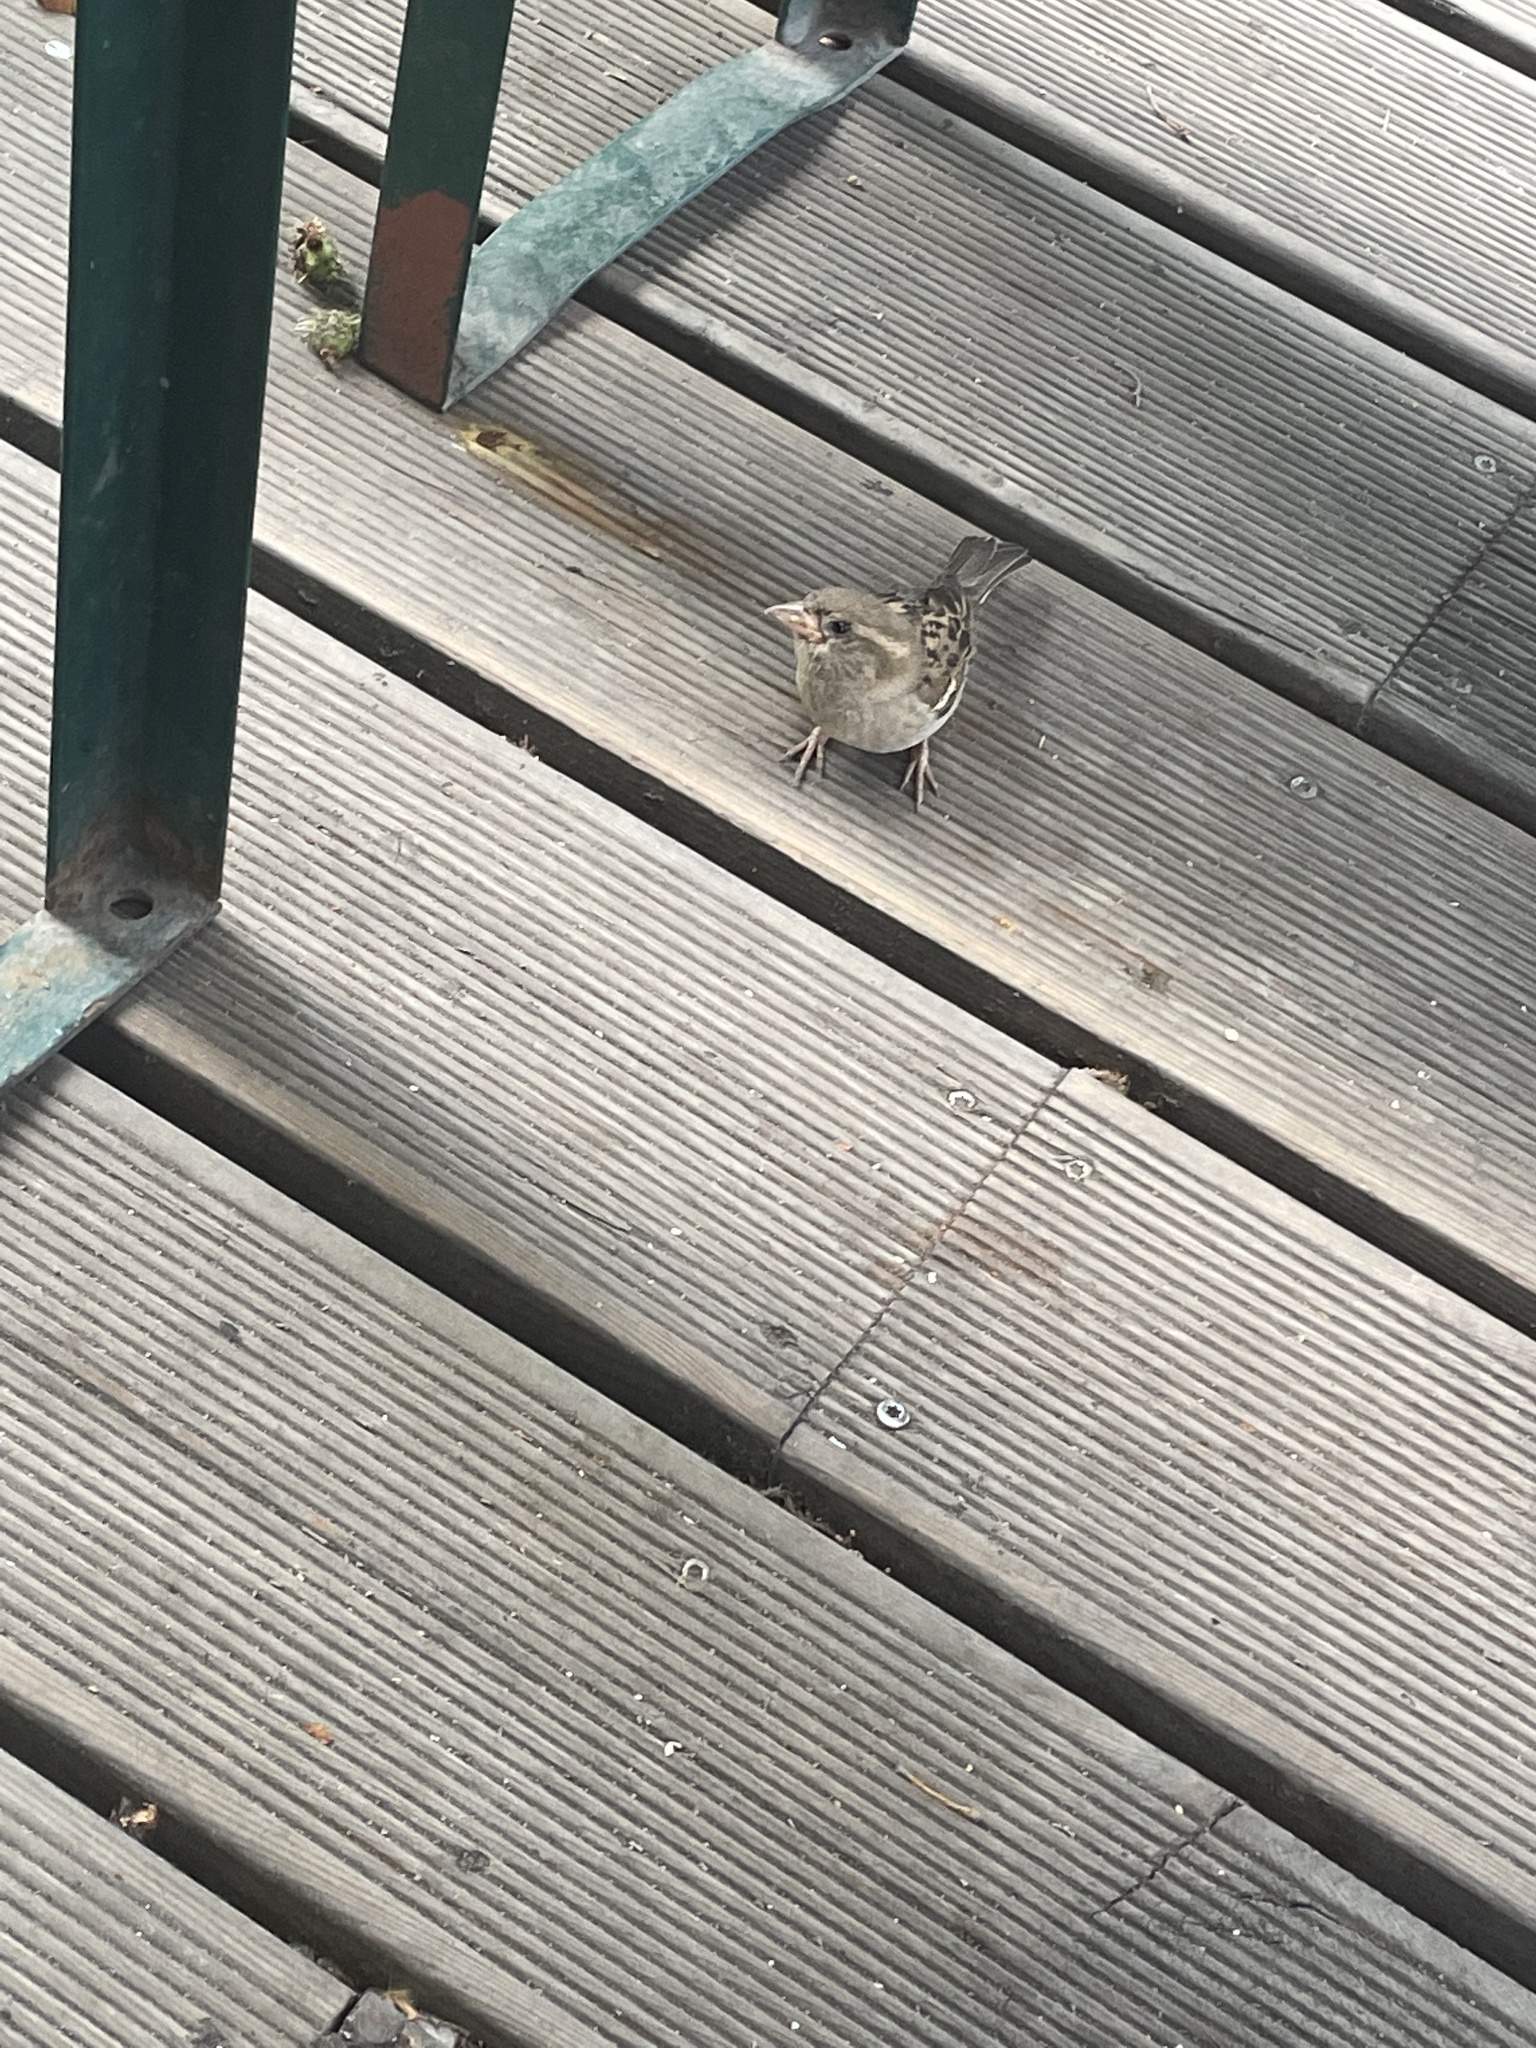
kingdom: Animalia
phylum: Chordata
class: Aves
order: Passeriformes
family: Passeridae
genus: Passer
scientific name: Passer domesticus
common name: House sparrow
